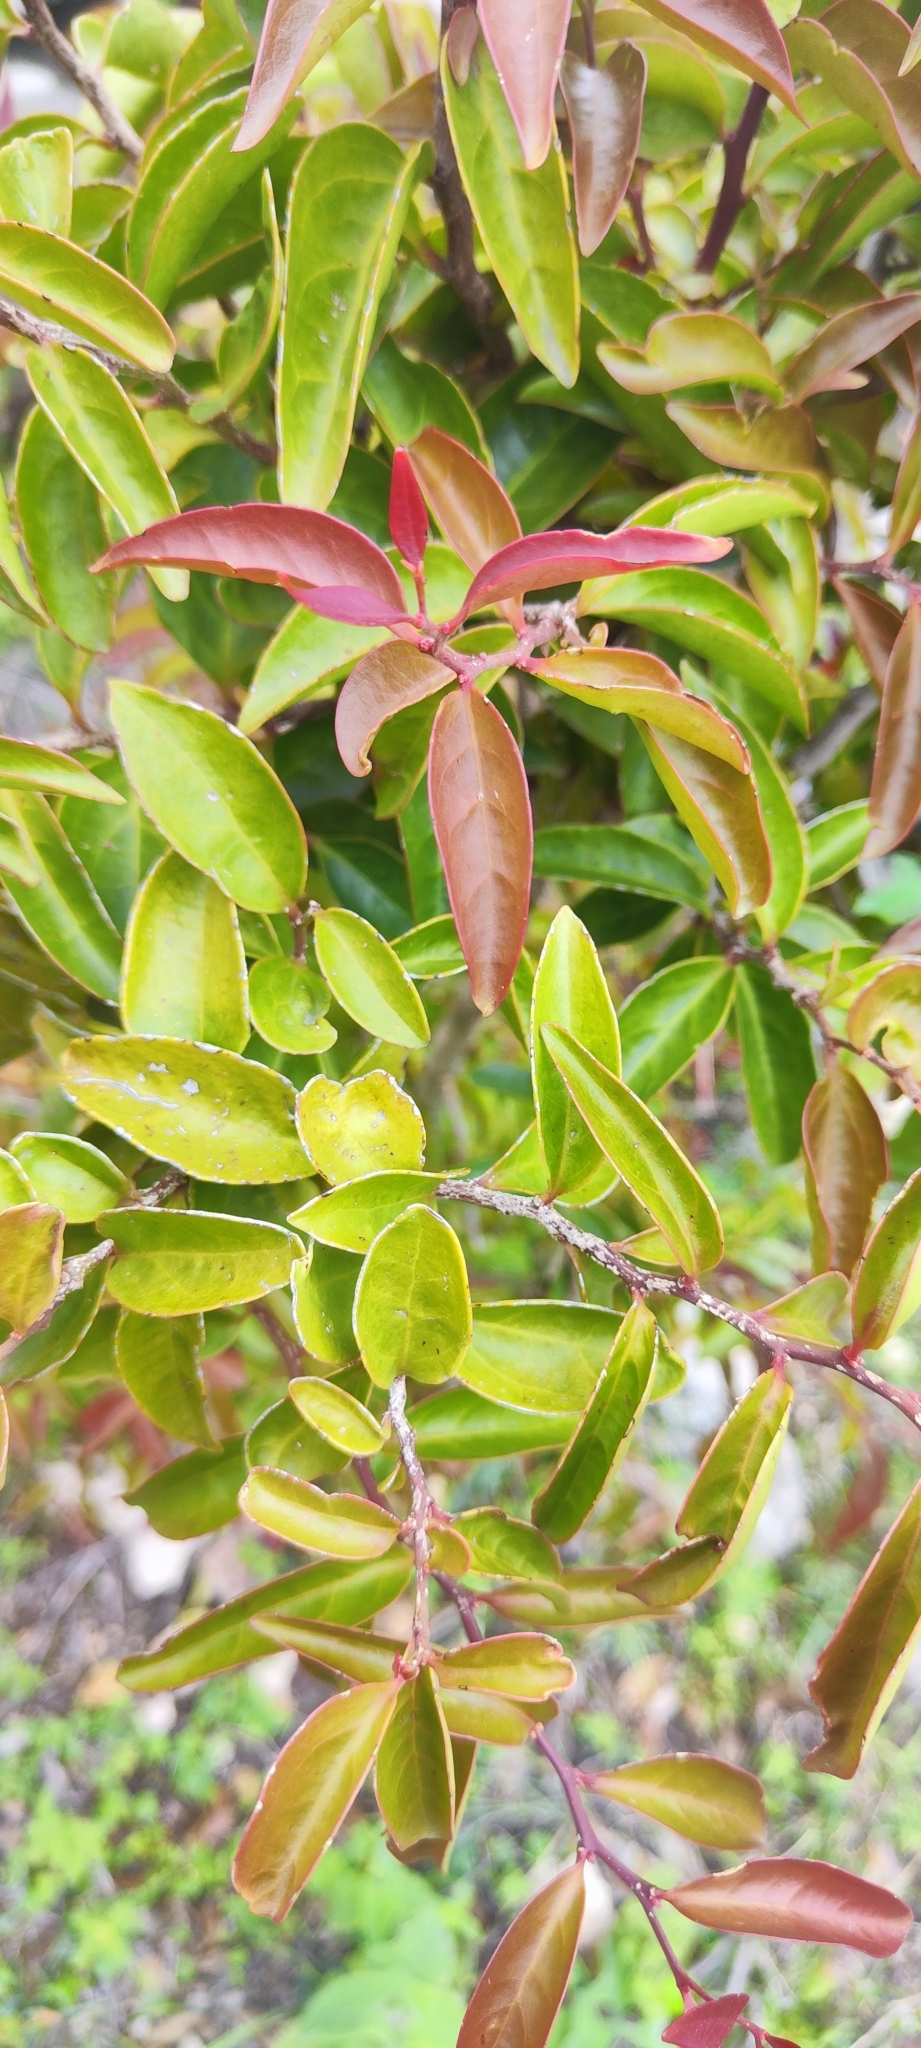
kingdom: Plantae
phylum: Tracheophyta
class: Magnoliopsida
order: Santalales
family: Schoepfiaceae
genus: Schoepfia
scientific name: Schoepfia flexuosa
